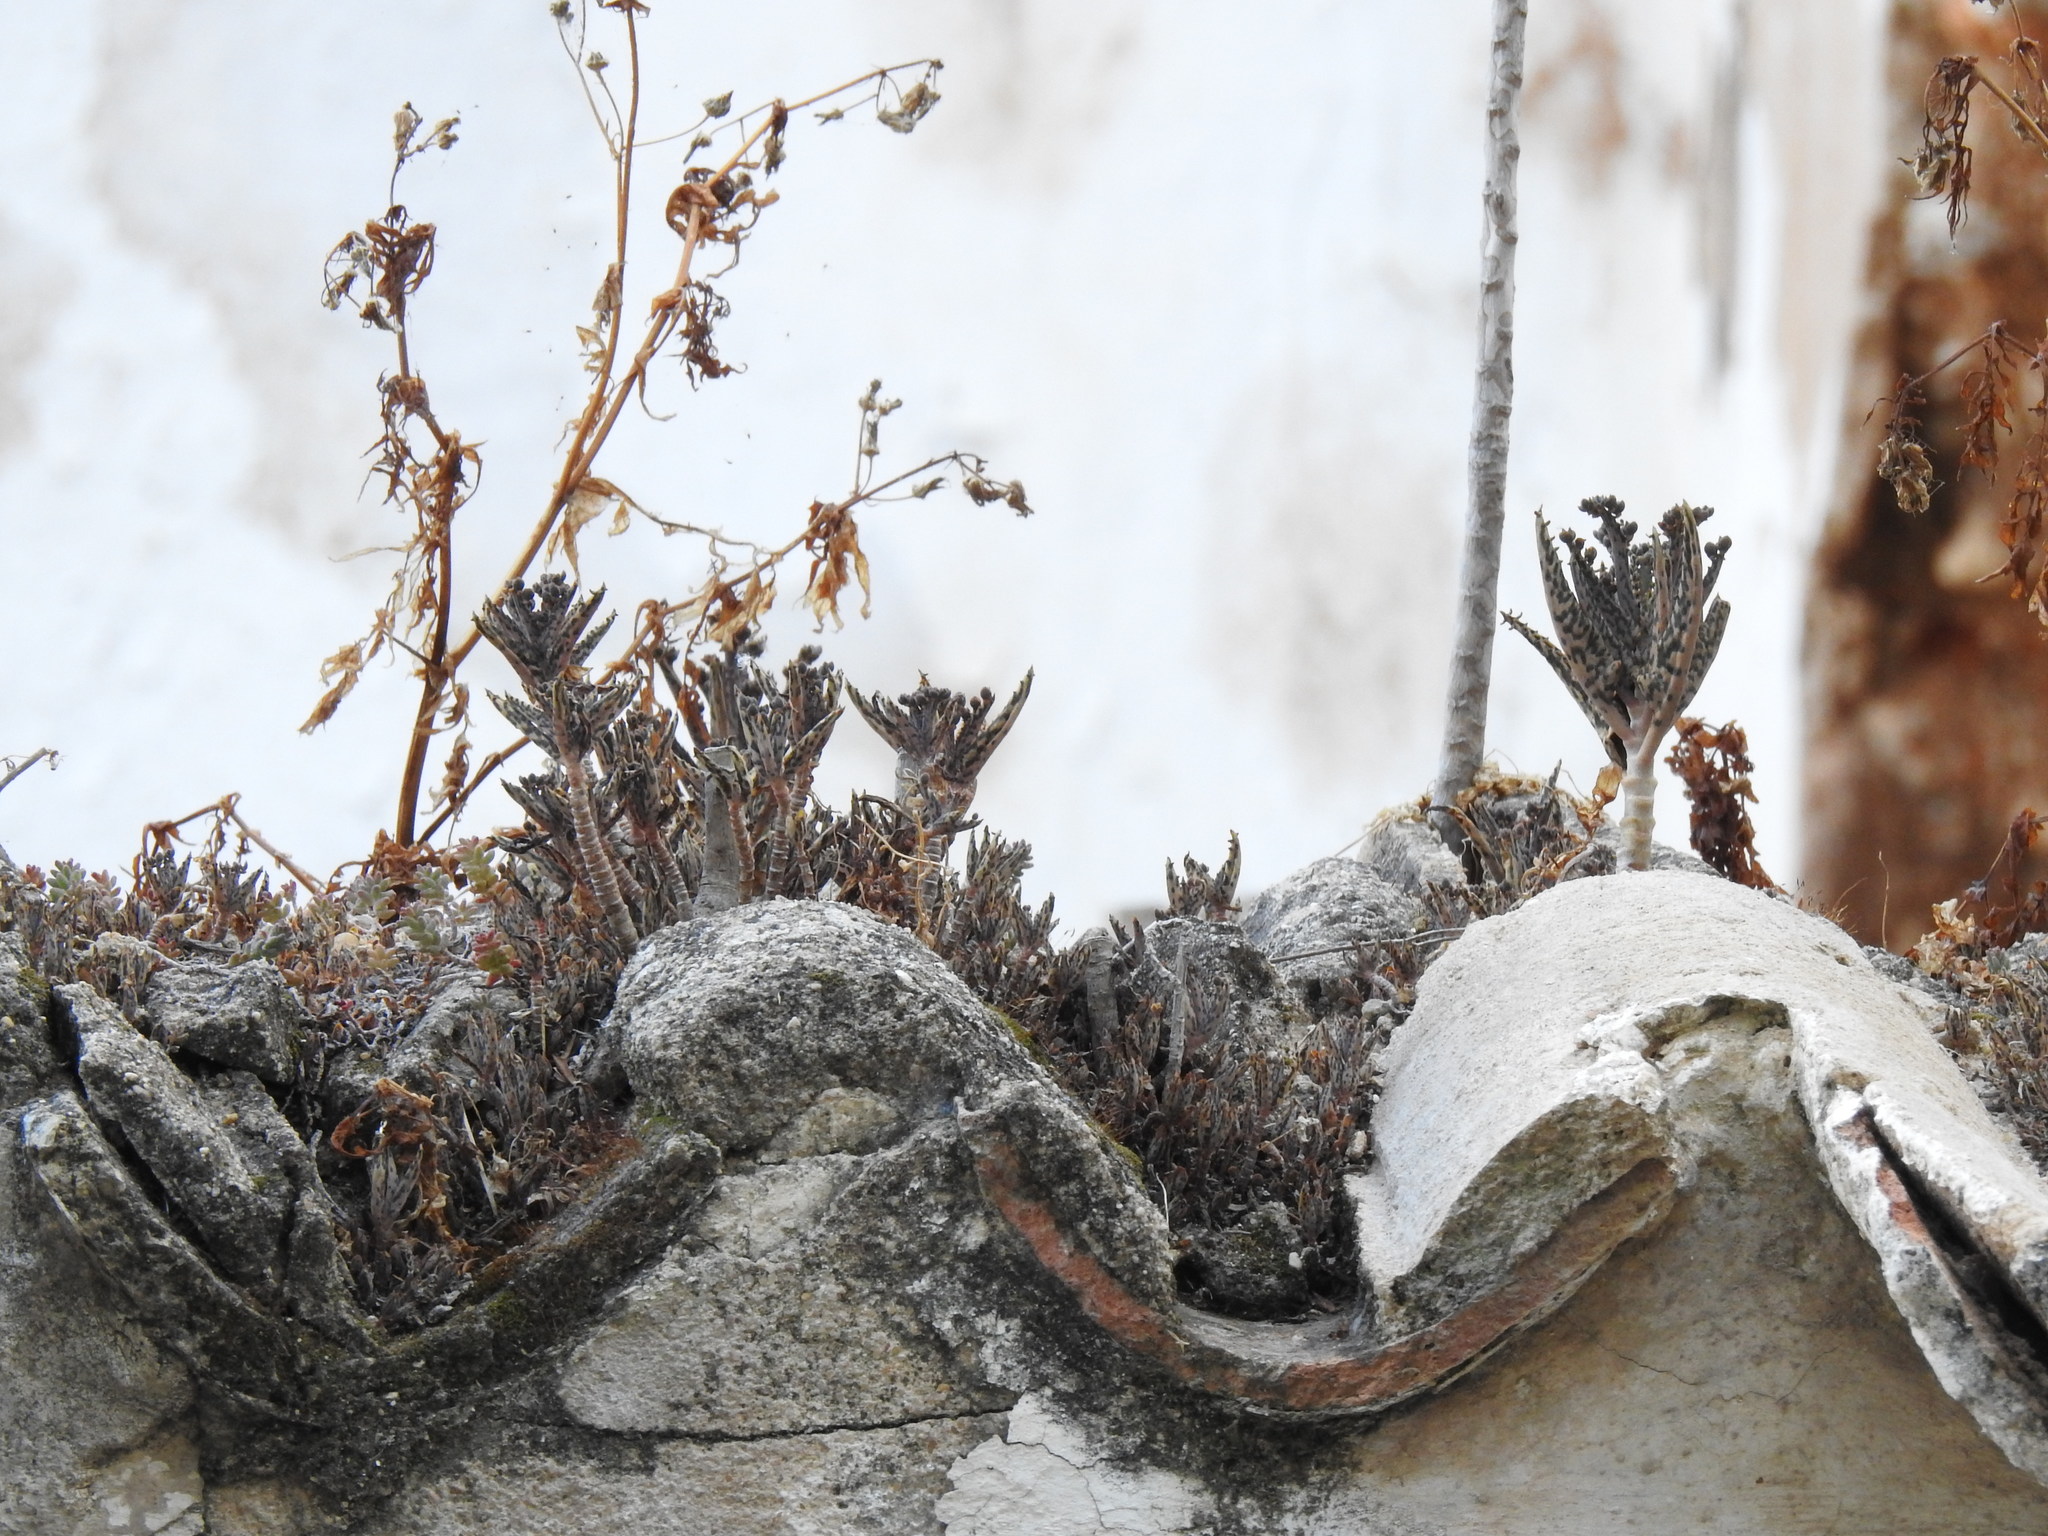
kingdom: Plantae
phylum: Tracheophyta
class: Magnoliopsida
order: Saxifragales
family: Crassulaceae
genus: Kalanchoe
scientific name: Kalanchoe houghtonii
